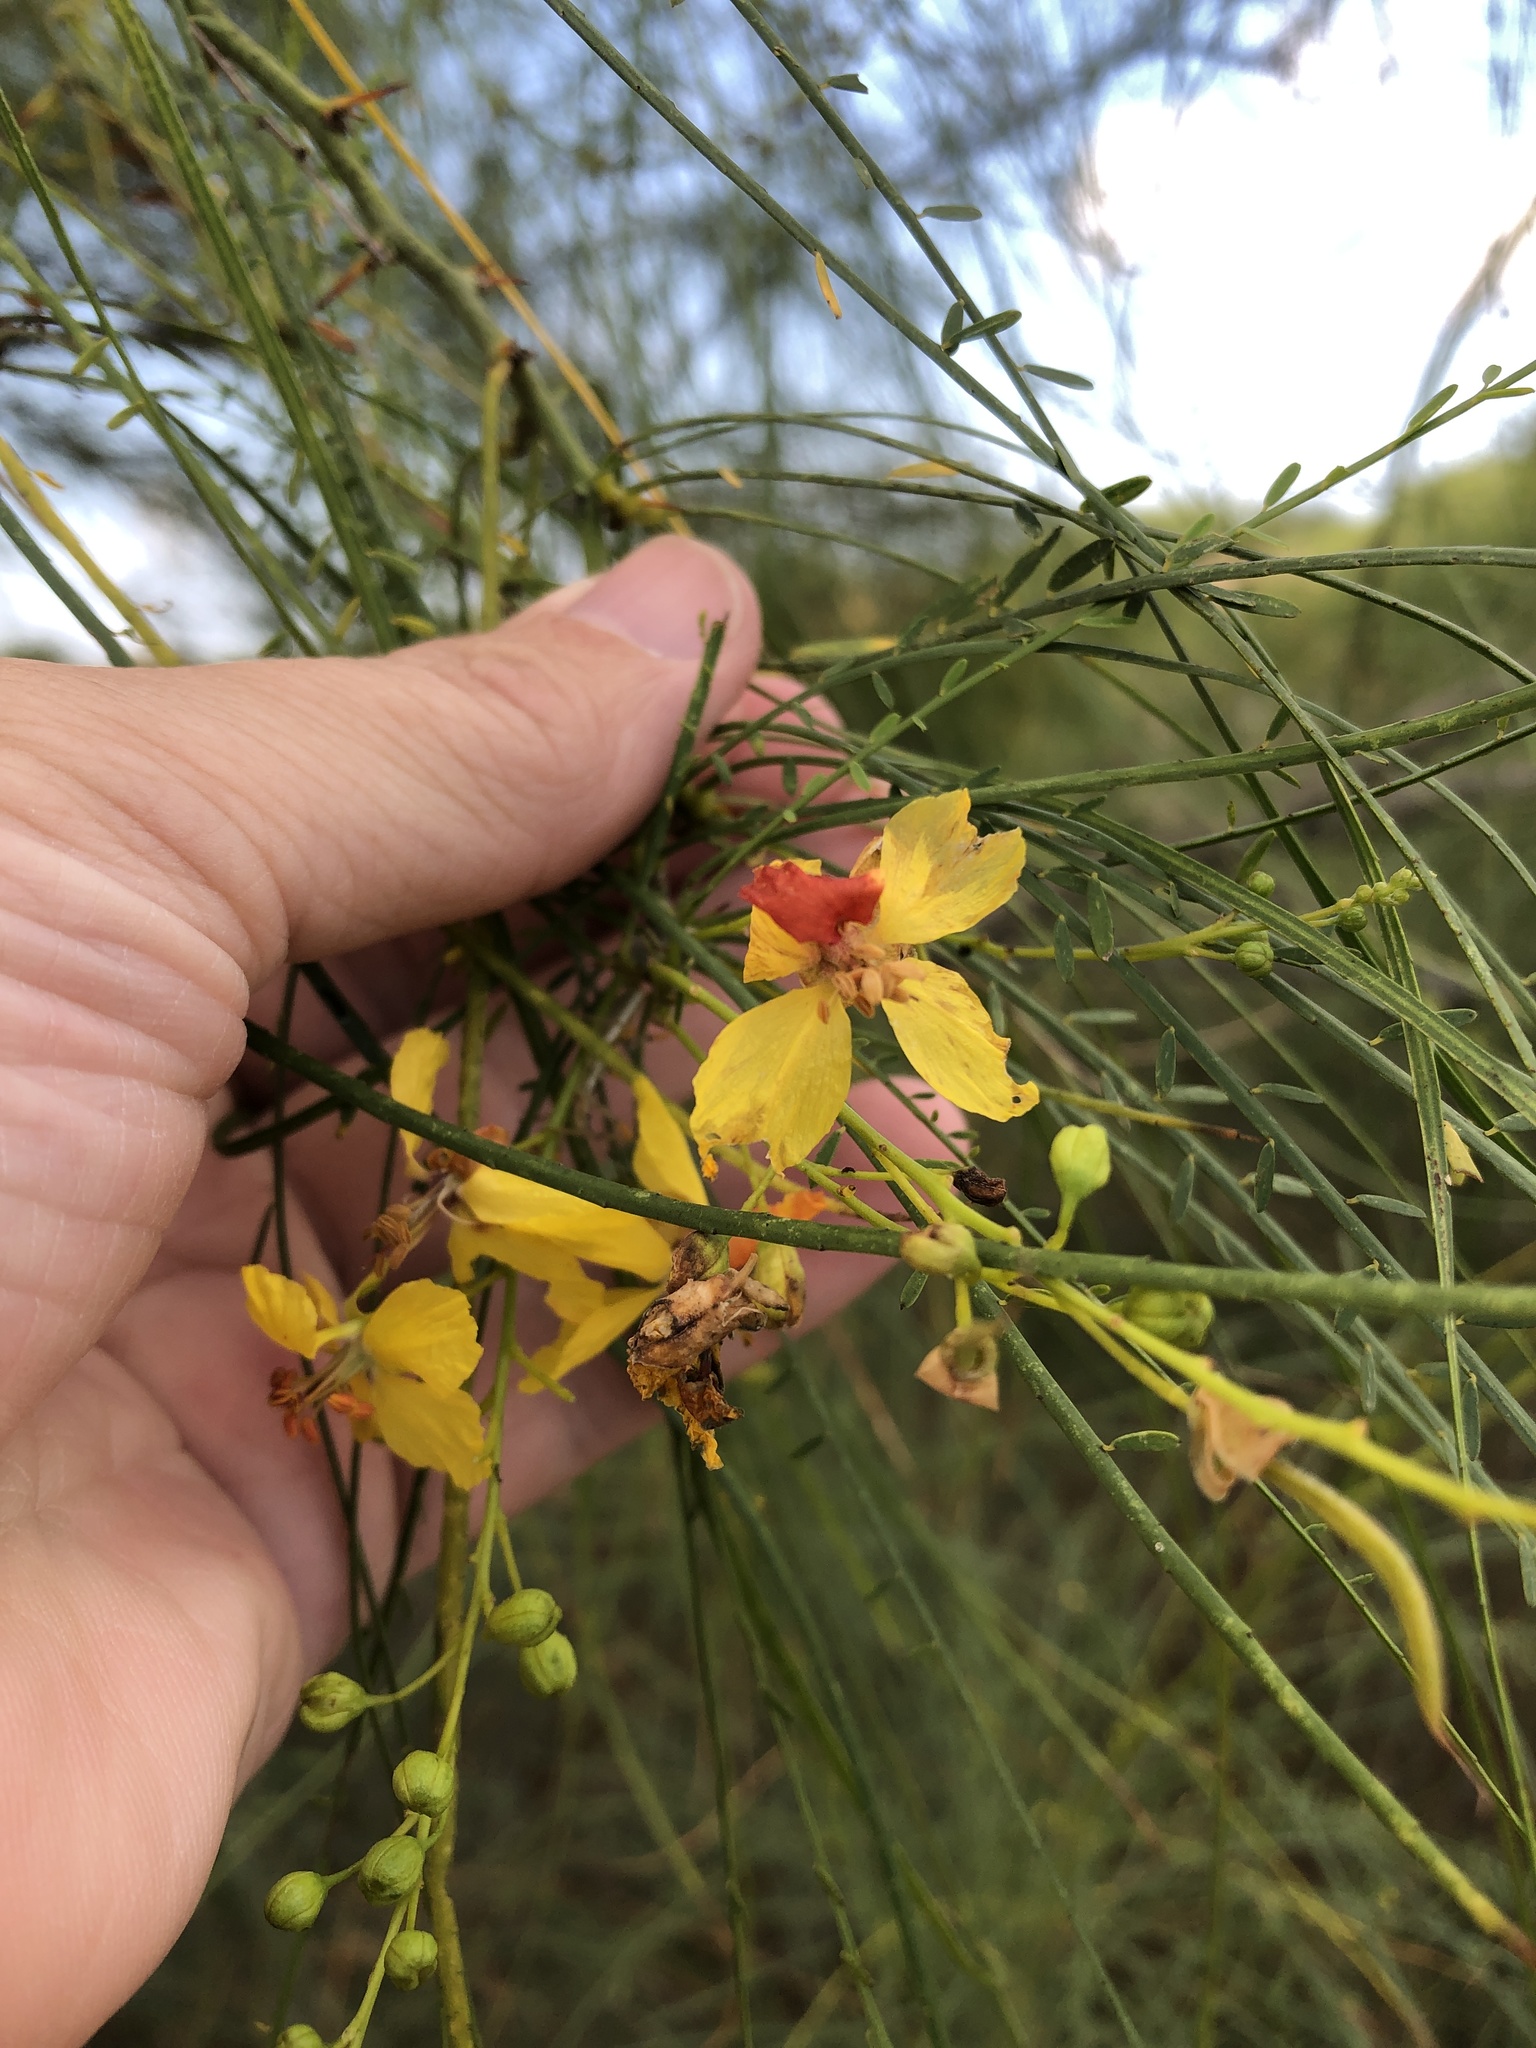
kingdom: Plantae
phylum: Tracheophyta
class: Magnoliopsida
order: Fabales
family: Fabaceae
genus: Parkinsonia
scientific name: Parkinsonia aculeata
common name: Jerusalem thorn
